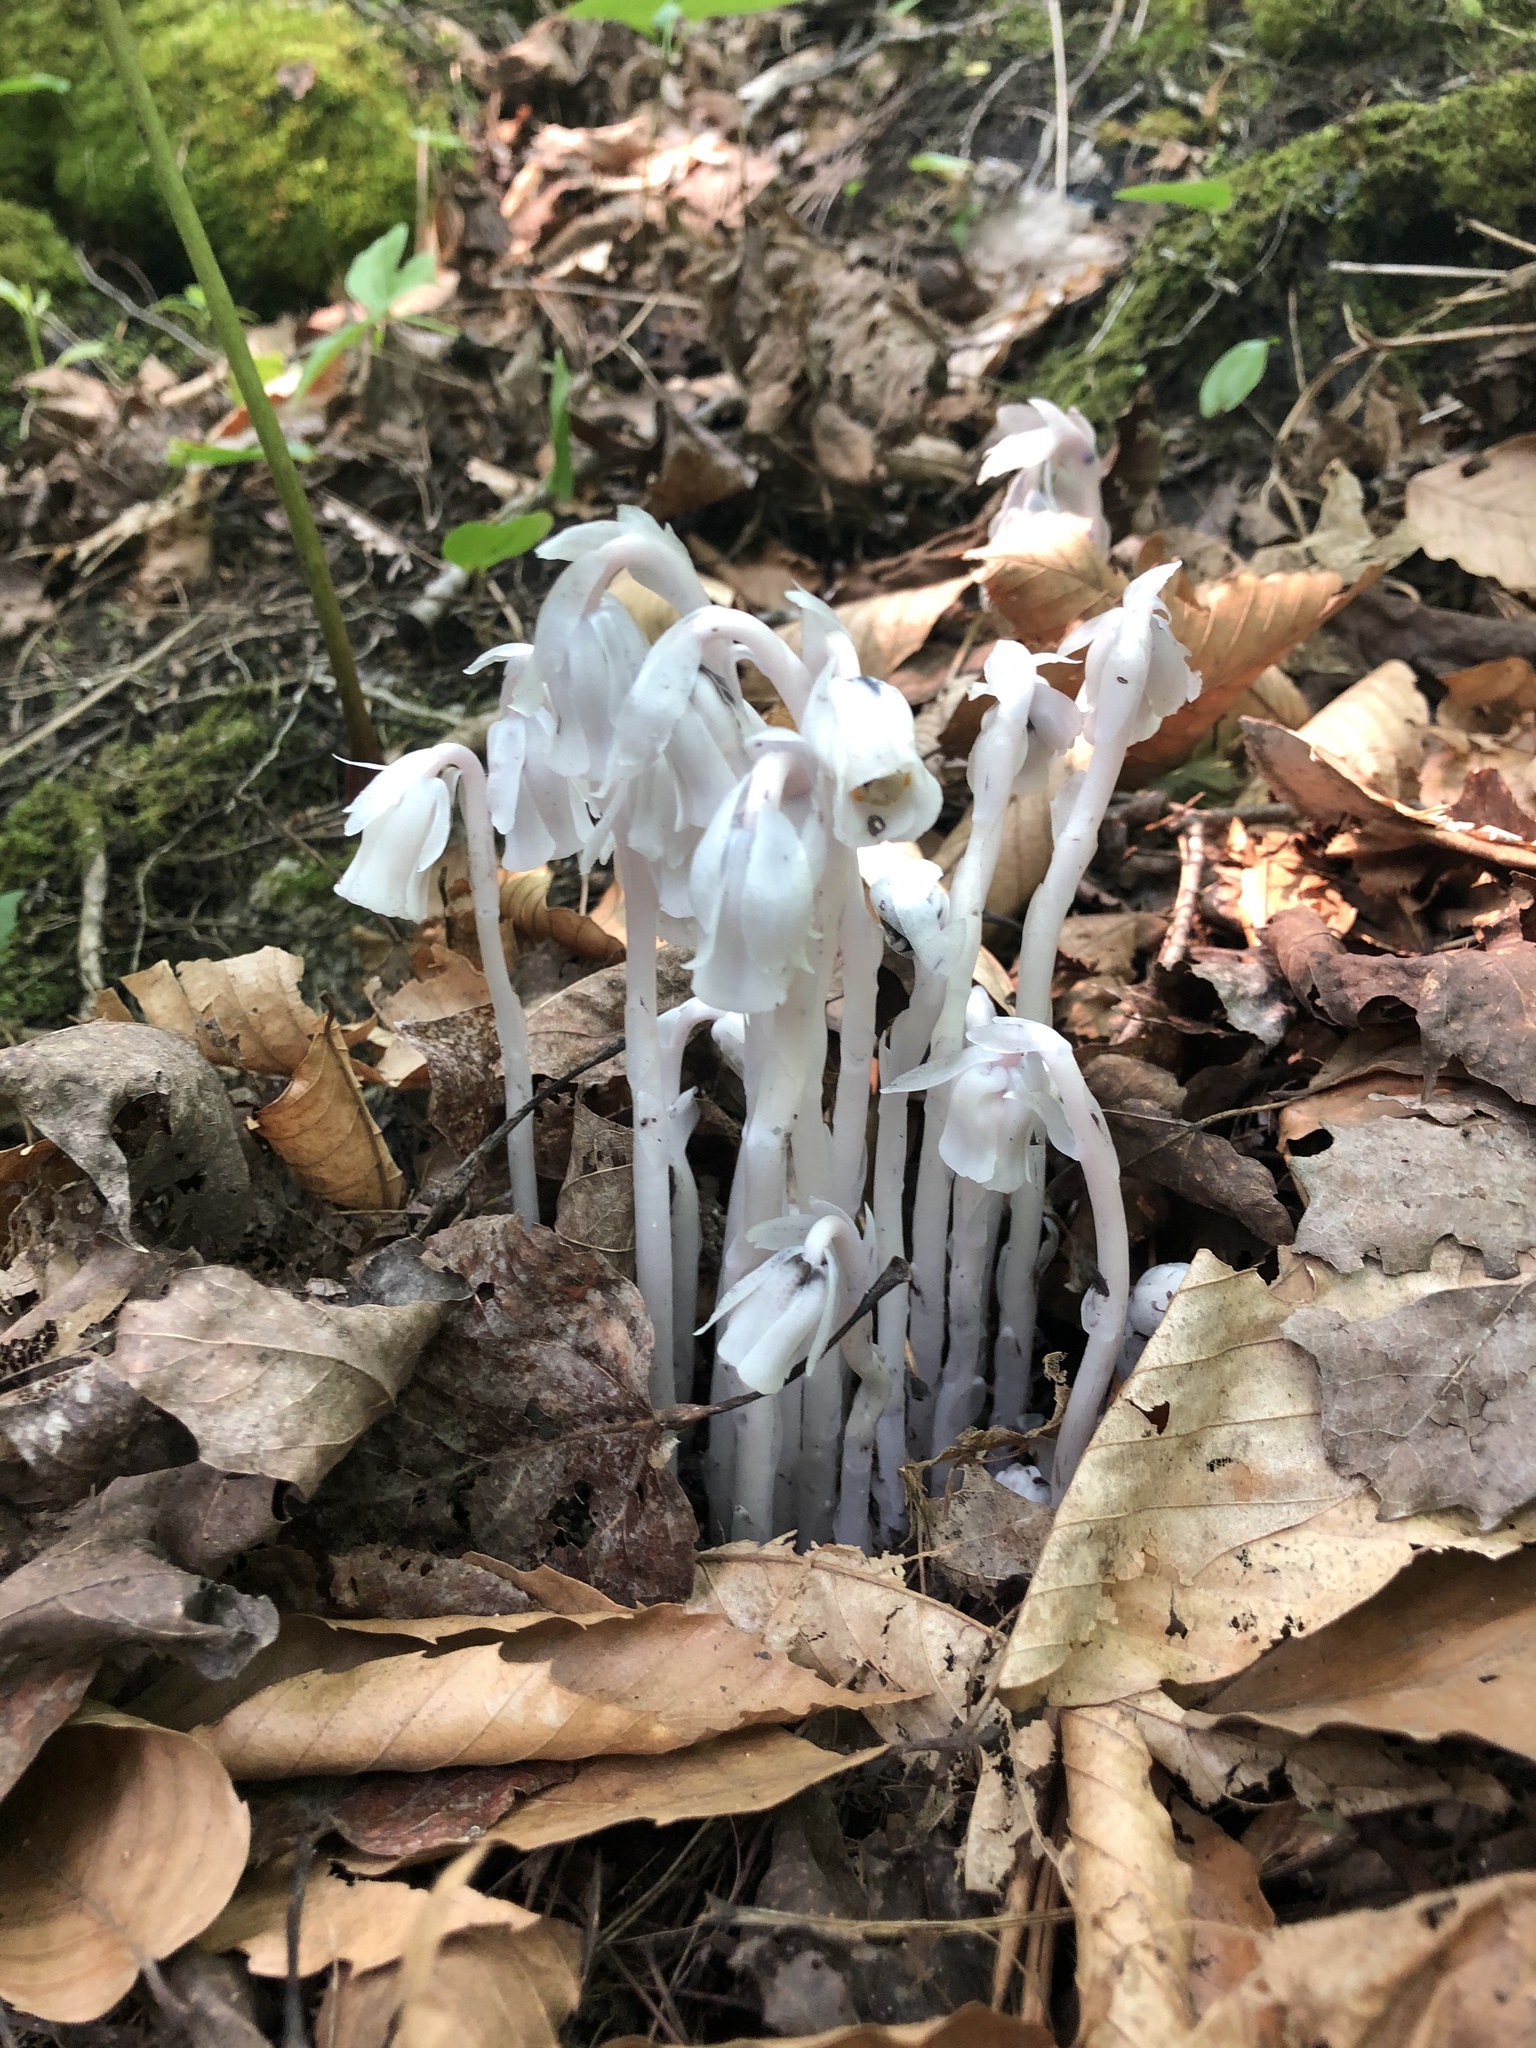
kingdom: Plantae
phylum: Tracheophyta
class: Magnoliopsida
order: Ericales
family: Ericaceae
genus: Monotropa
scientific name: Monotropa uniflora
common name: Convulsion root
